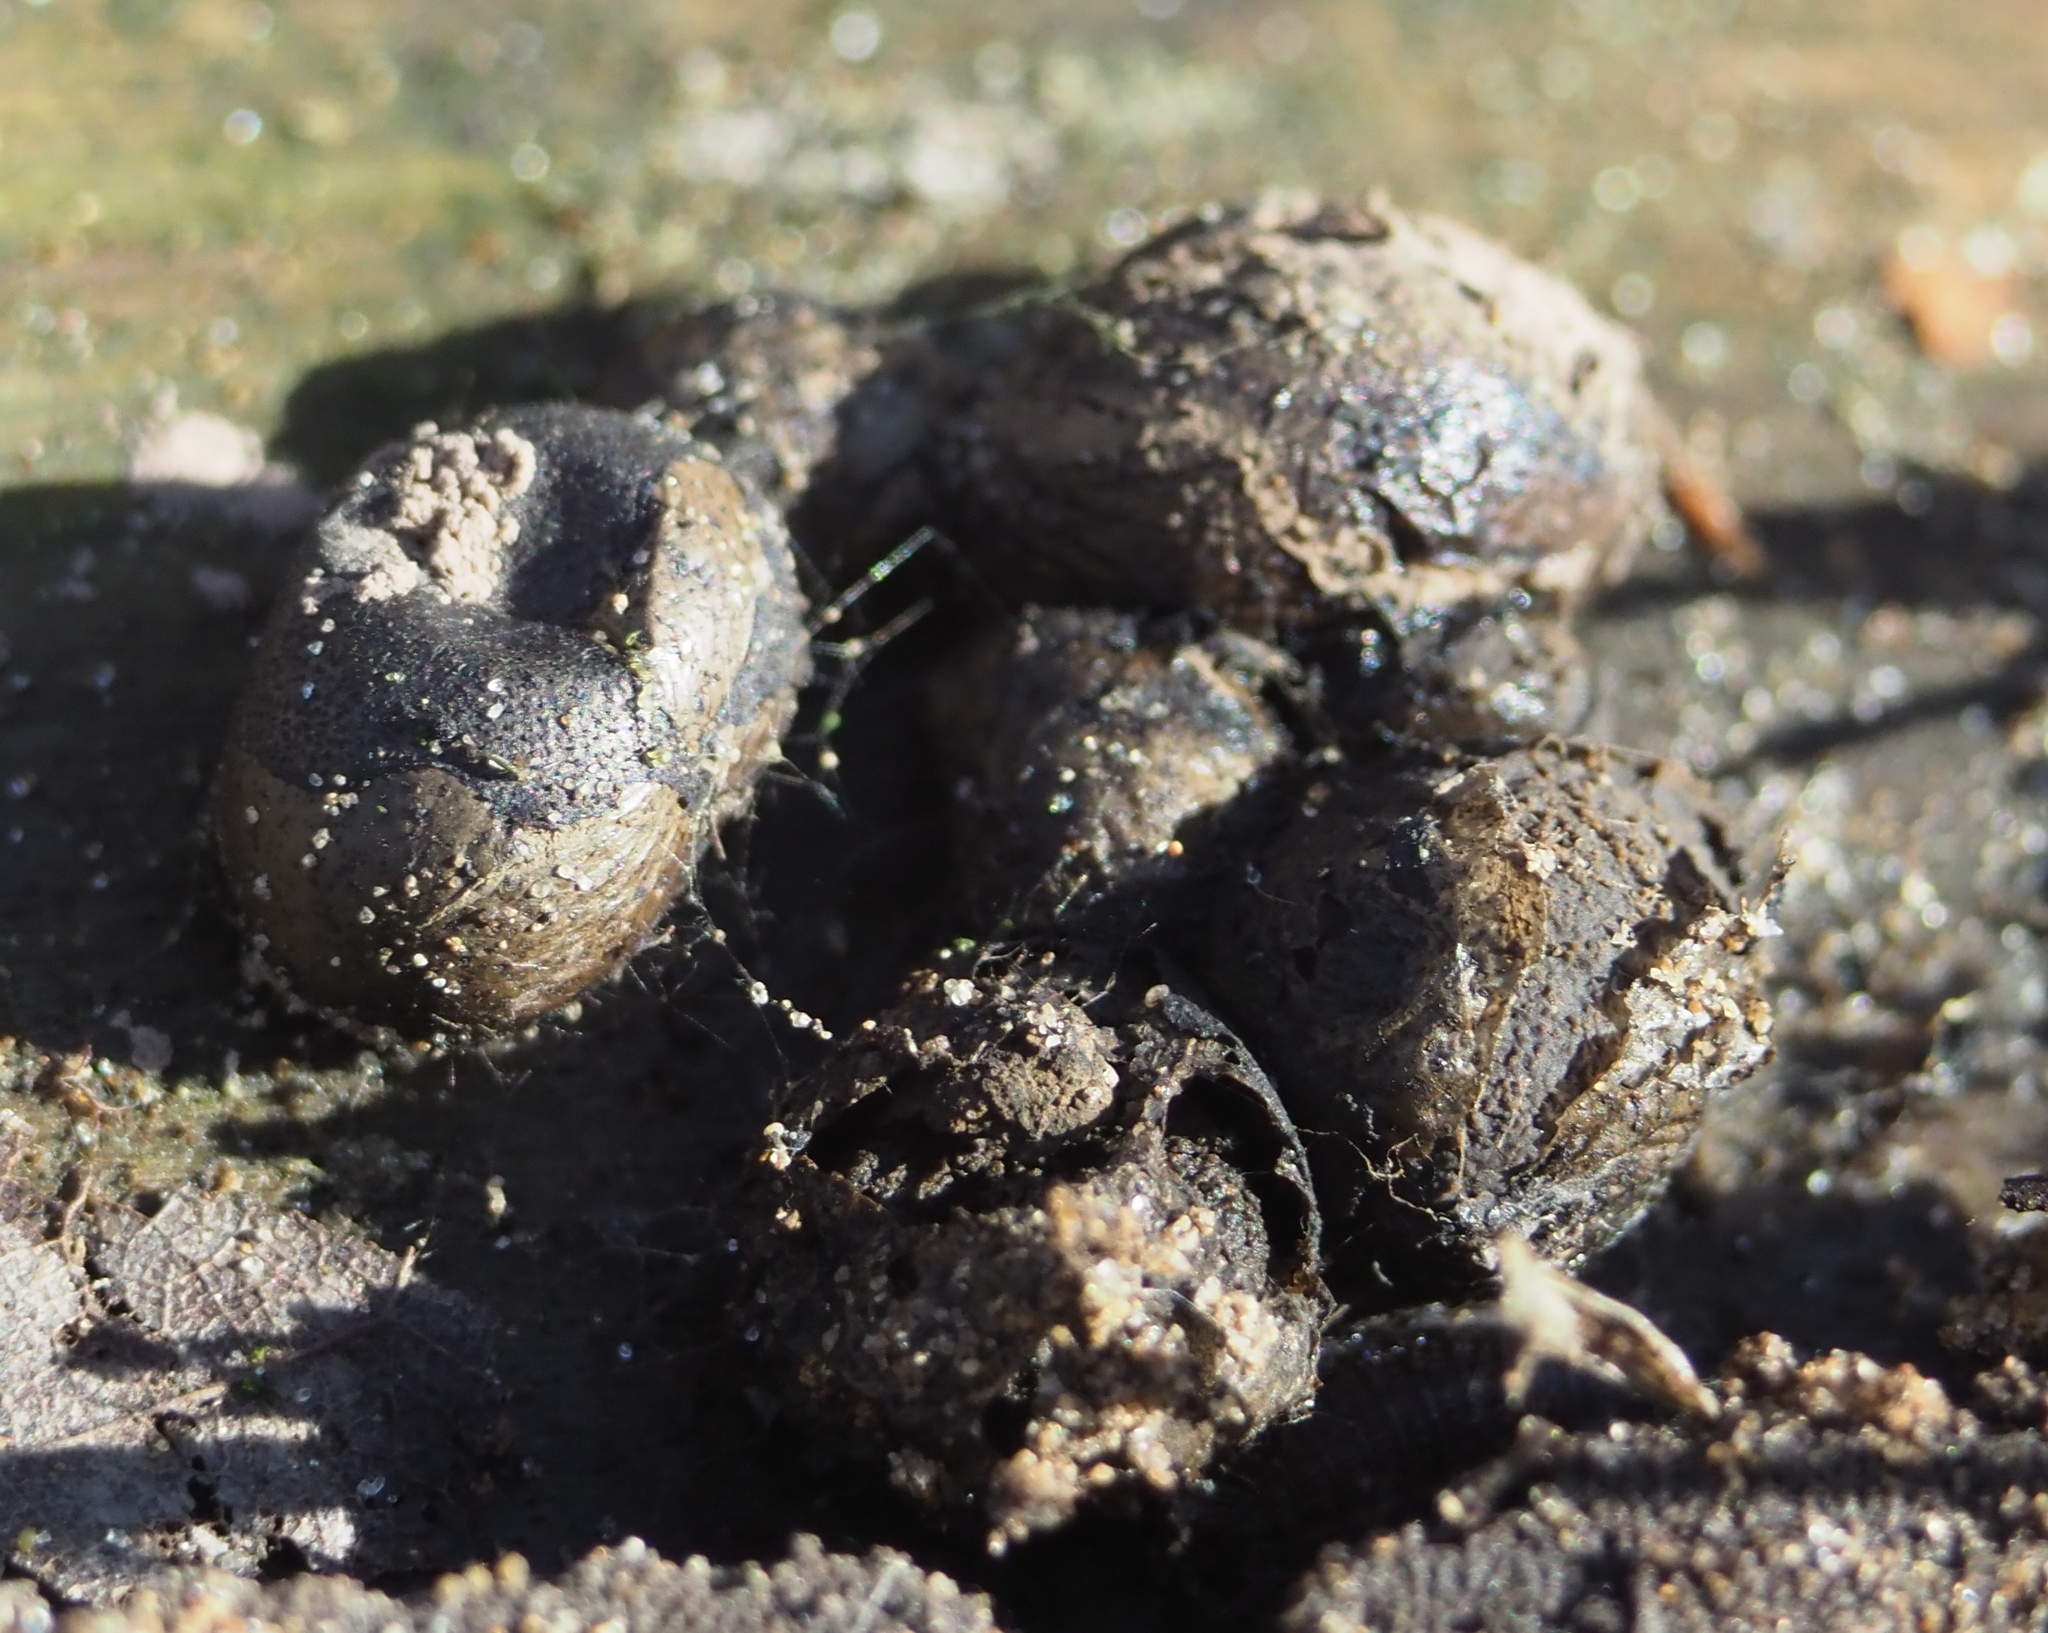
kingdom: Protozoa
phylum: Mycetozoa
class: Myxomycetes
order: Cribrariales
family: Tubiferaceae
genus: Lycogala
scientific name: Lycogala epidendrum
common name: Wolf's milk
